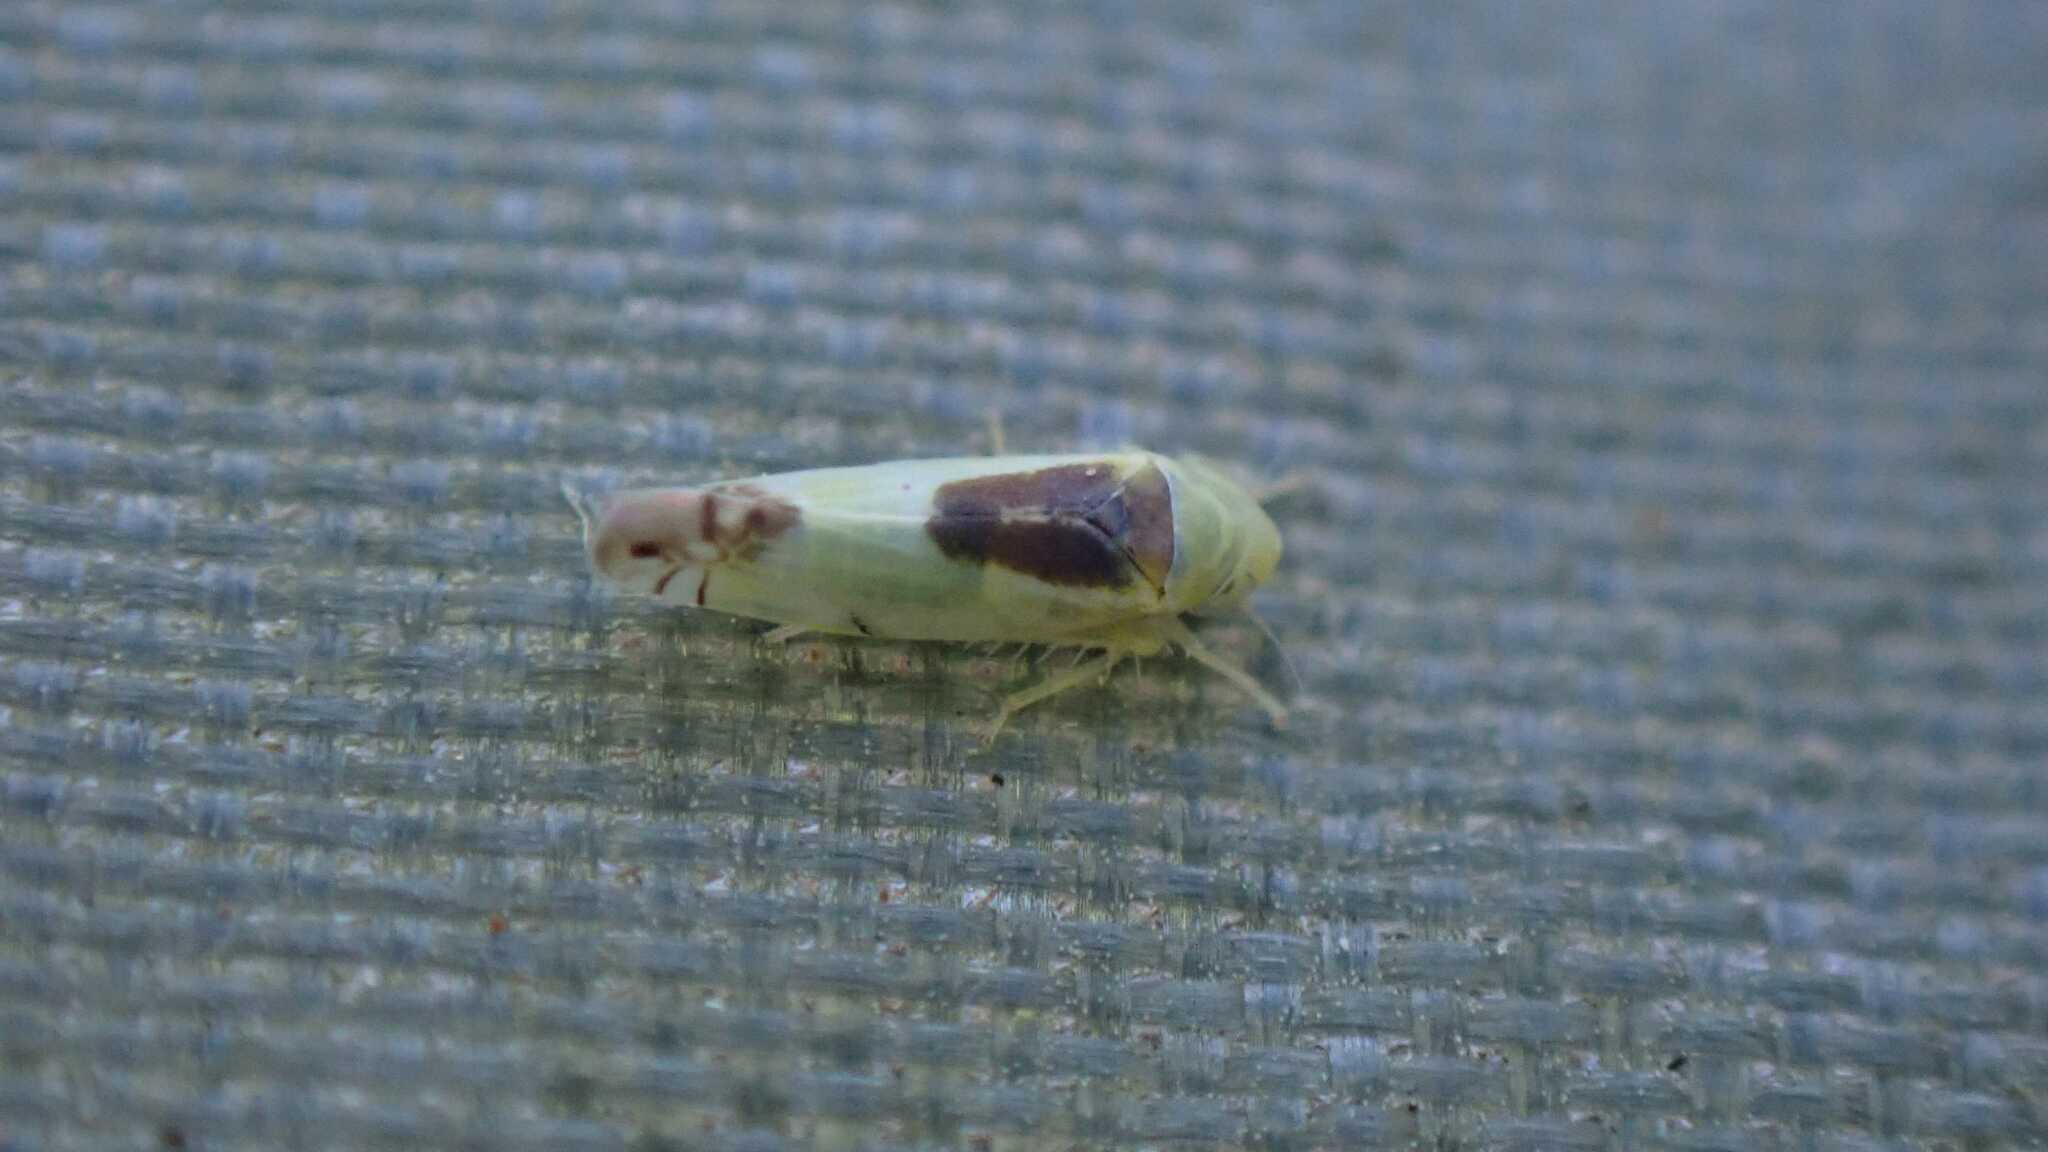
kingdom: Animalia
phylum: Arthropoda
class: Insecta
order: Hemiptera
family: Cicadellidae
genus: Zyginella
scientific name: Zyginella pulchra
